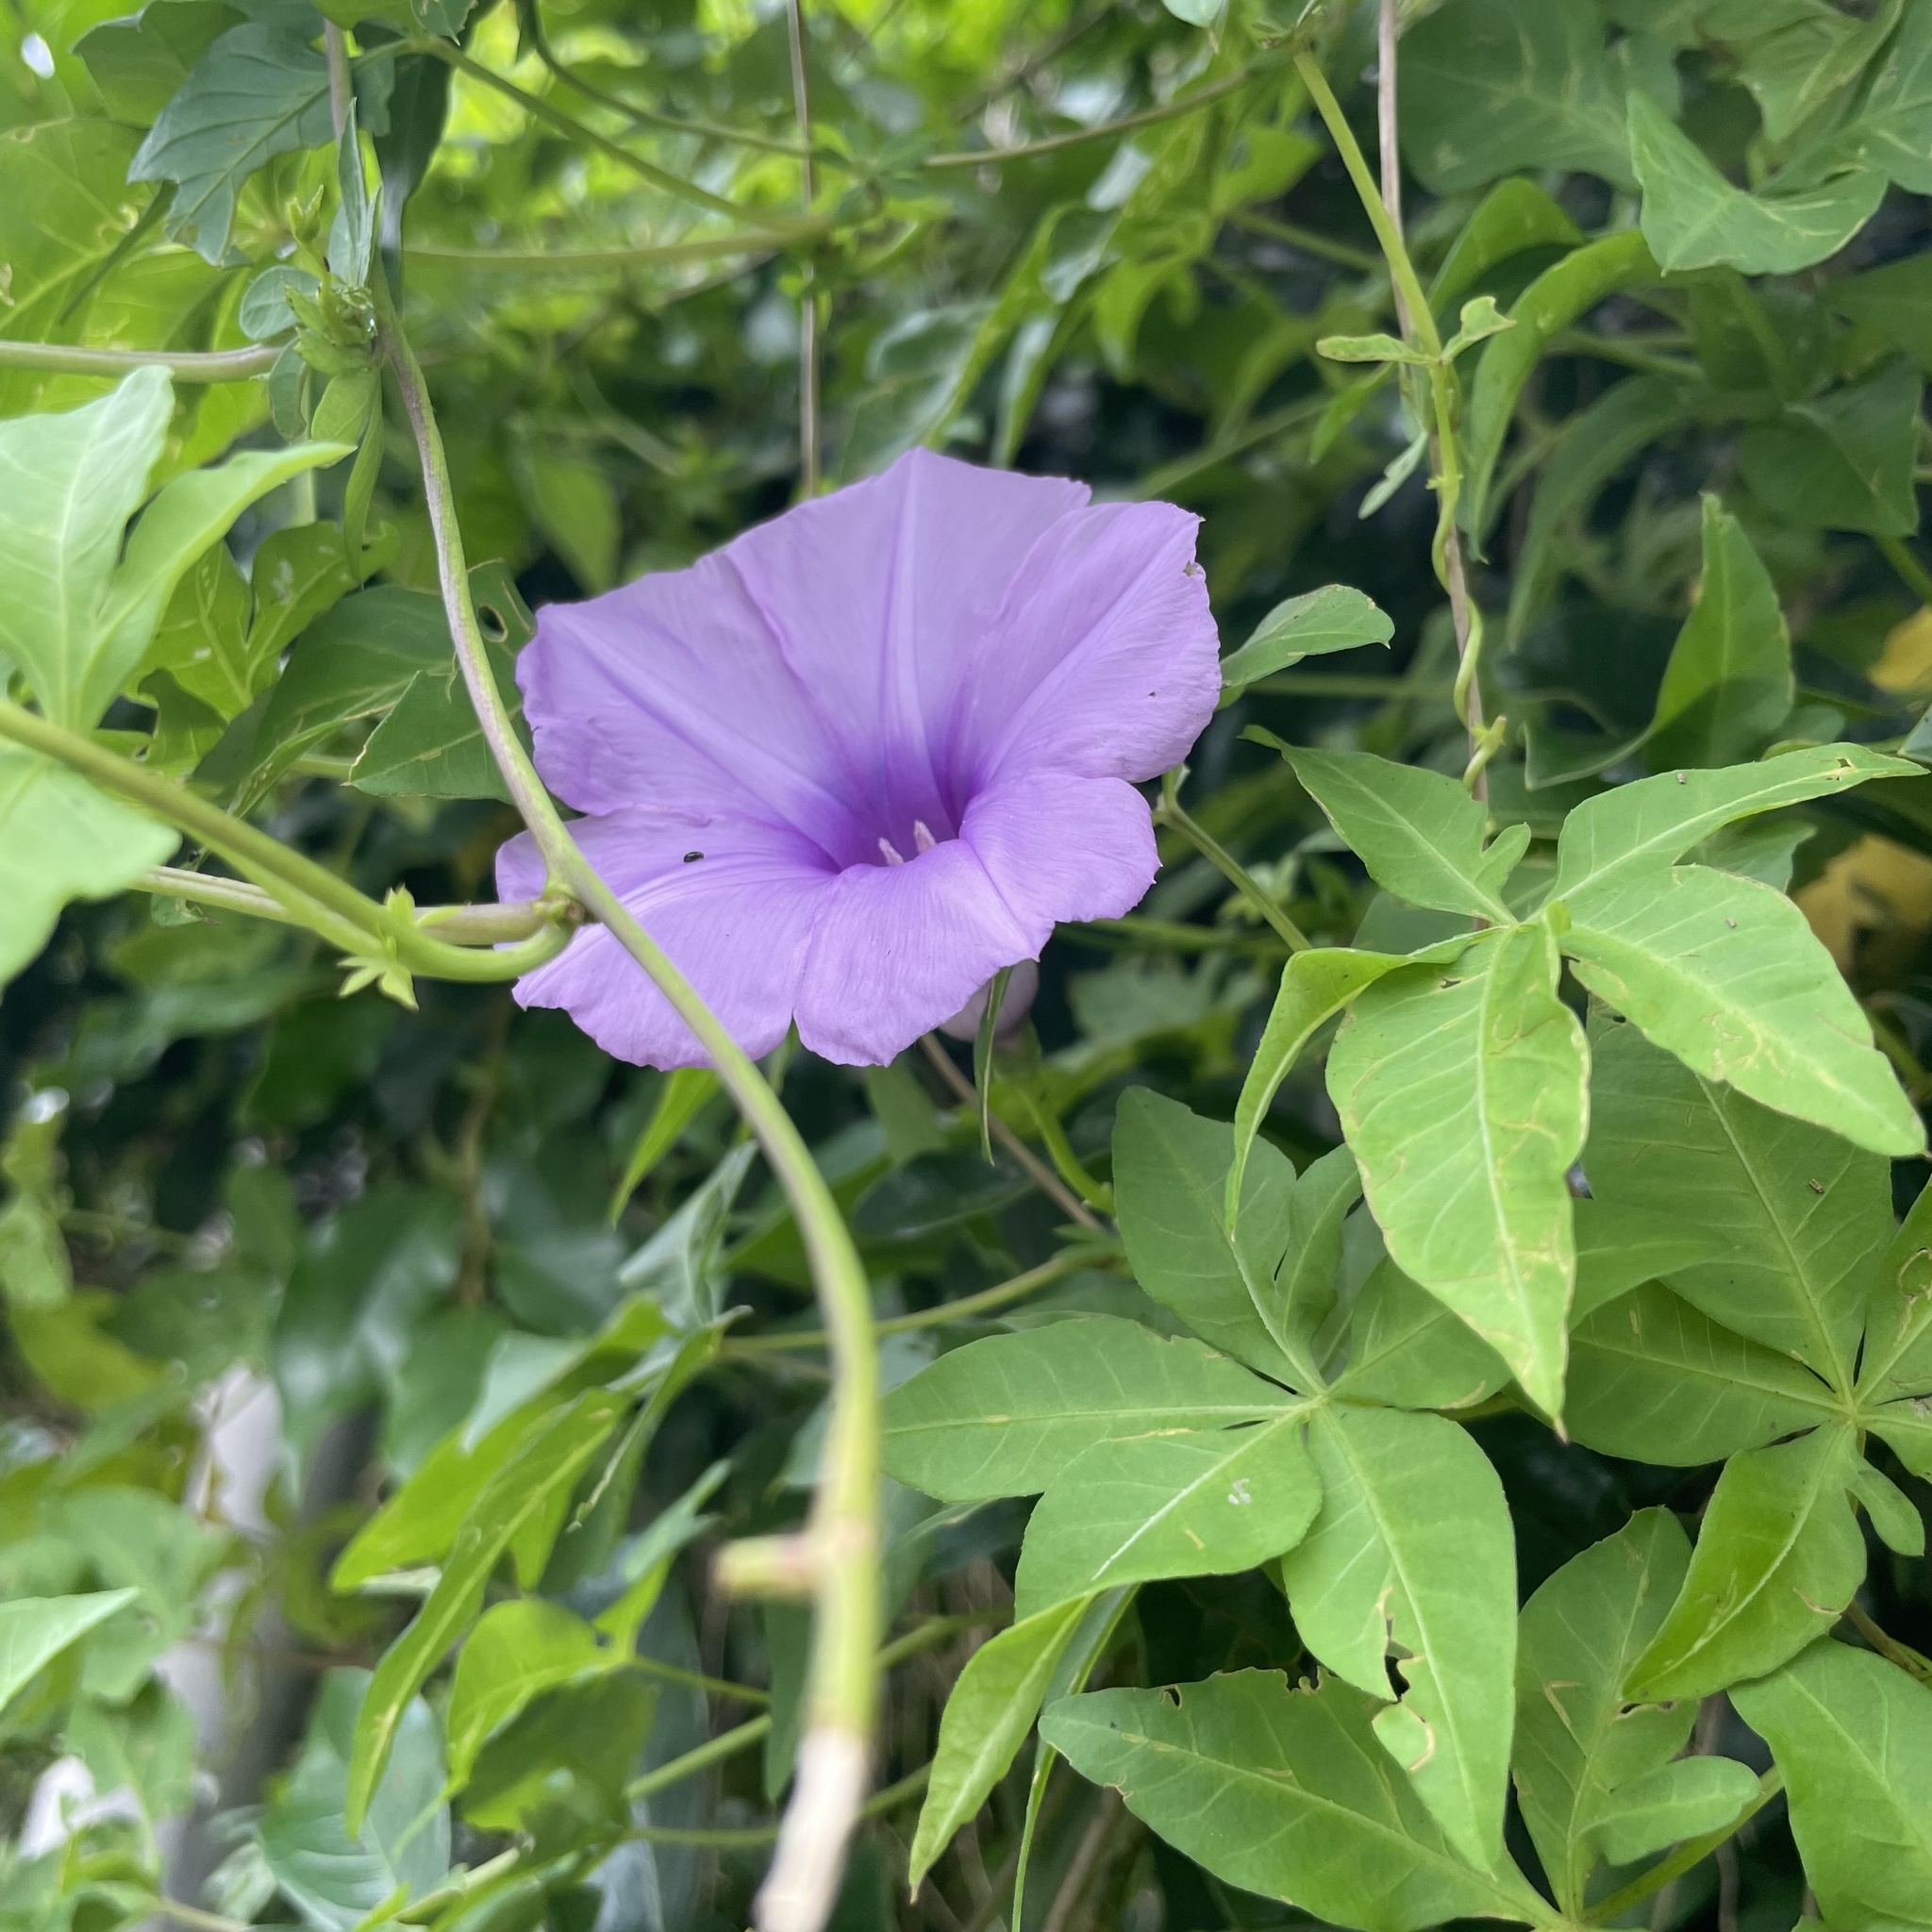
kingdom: Plantae
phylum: Tracheophyta
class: Magnoliopsida
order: Solanales
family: Convolvulaceae
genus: Ipomoea
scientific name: Ipomoea cairica
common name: Mile a minute vine
